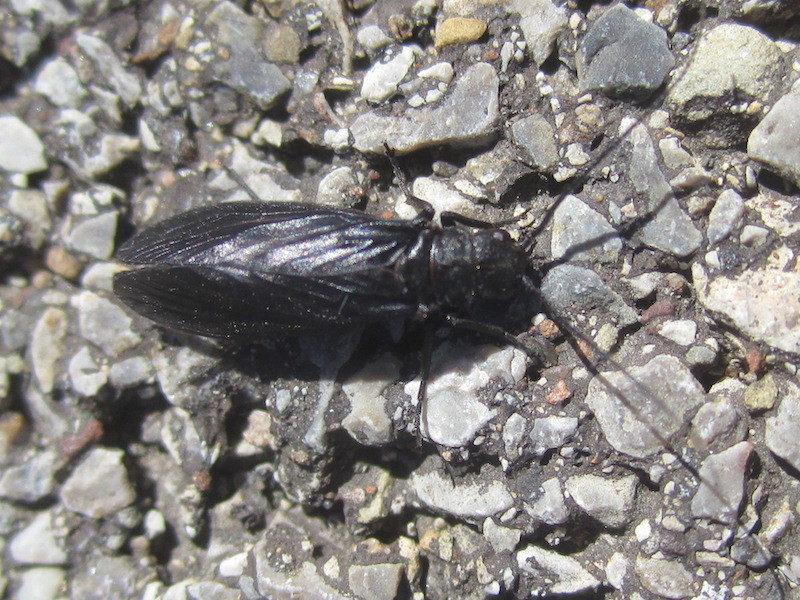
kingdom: Animalia
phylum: Arthropoda
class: Insecta
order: Megaloptera
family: Sialidae
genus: Sialis
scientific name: Sialis
